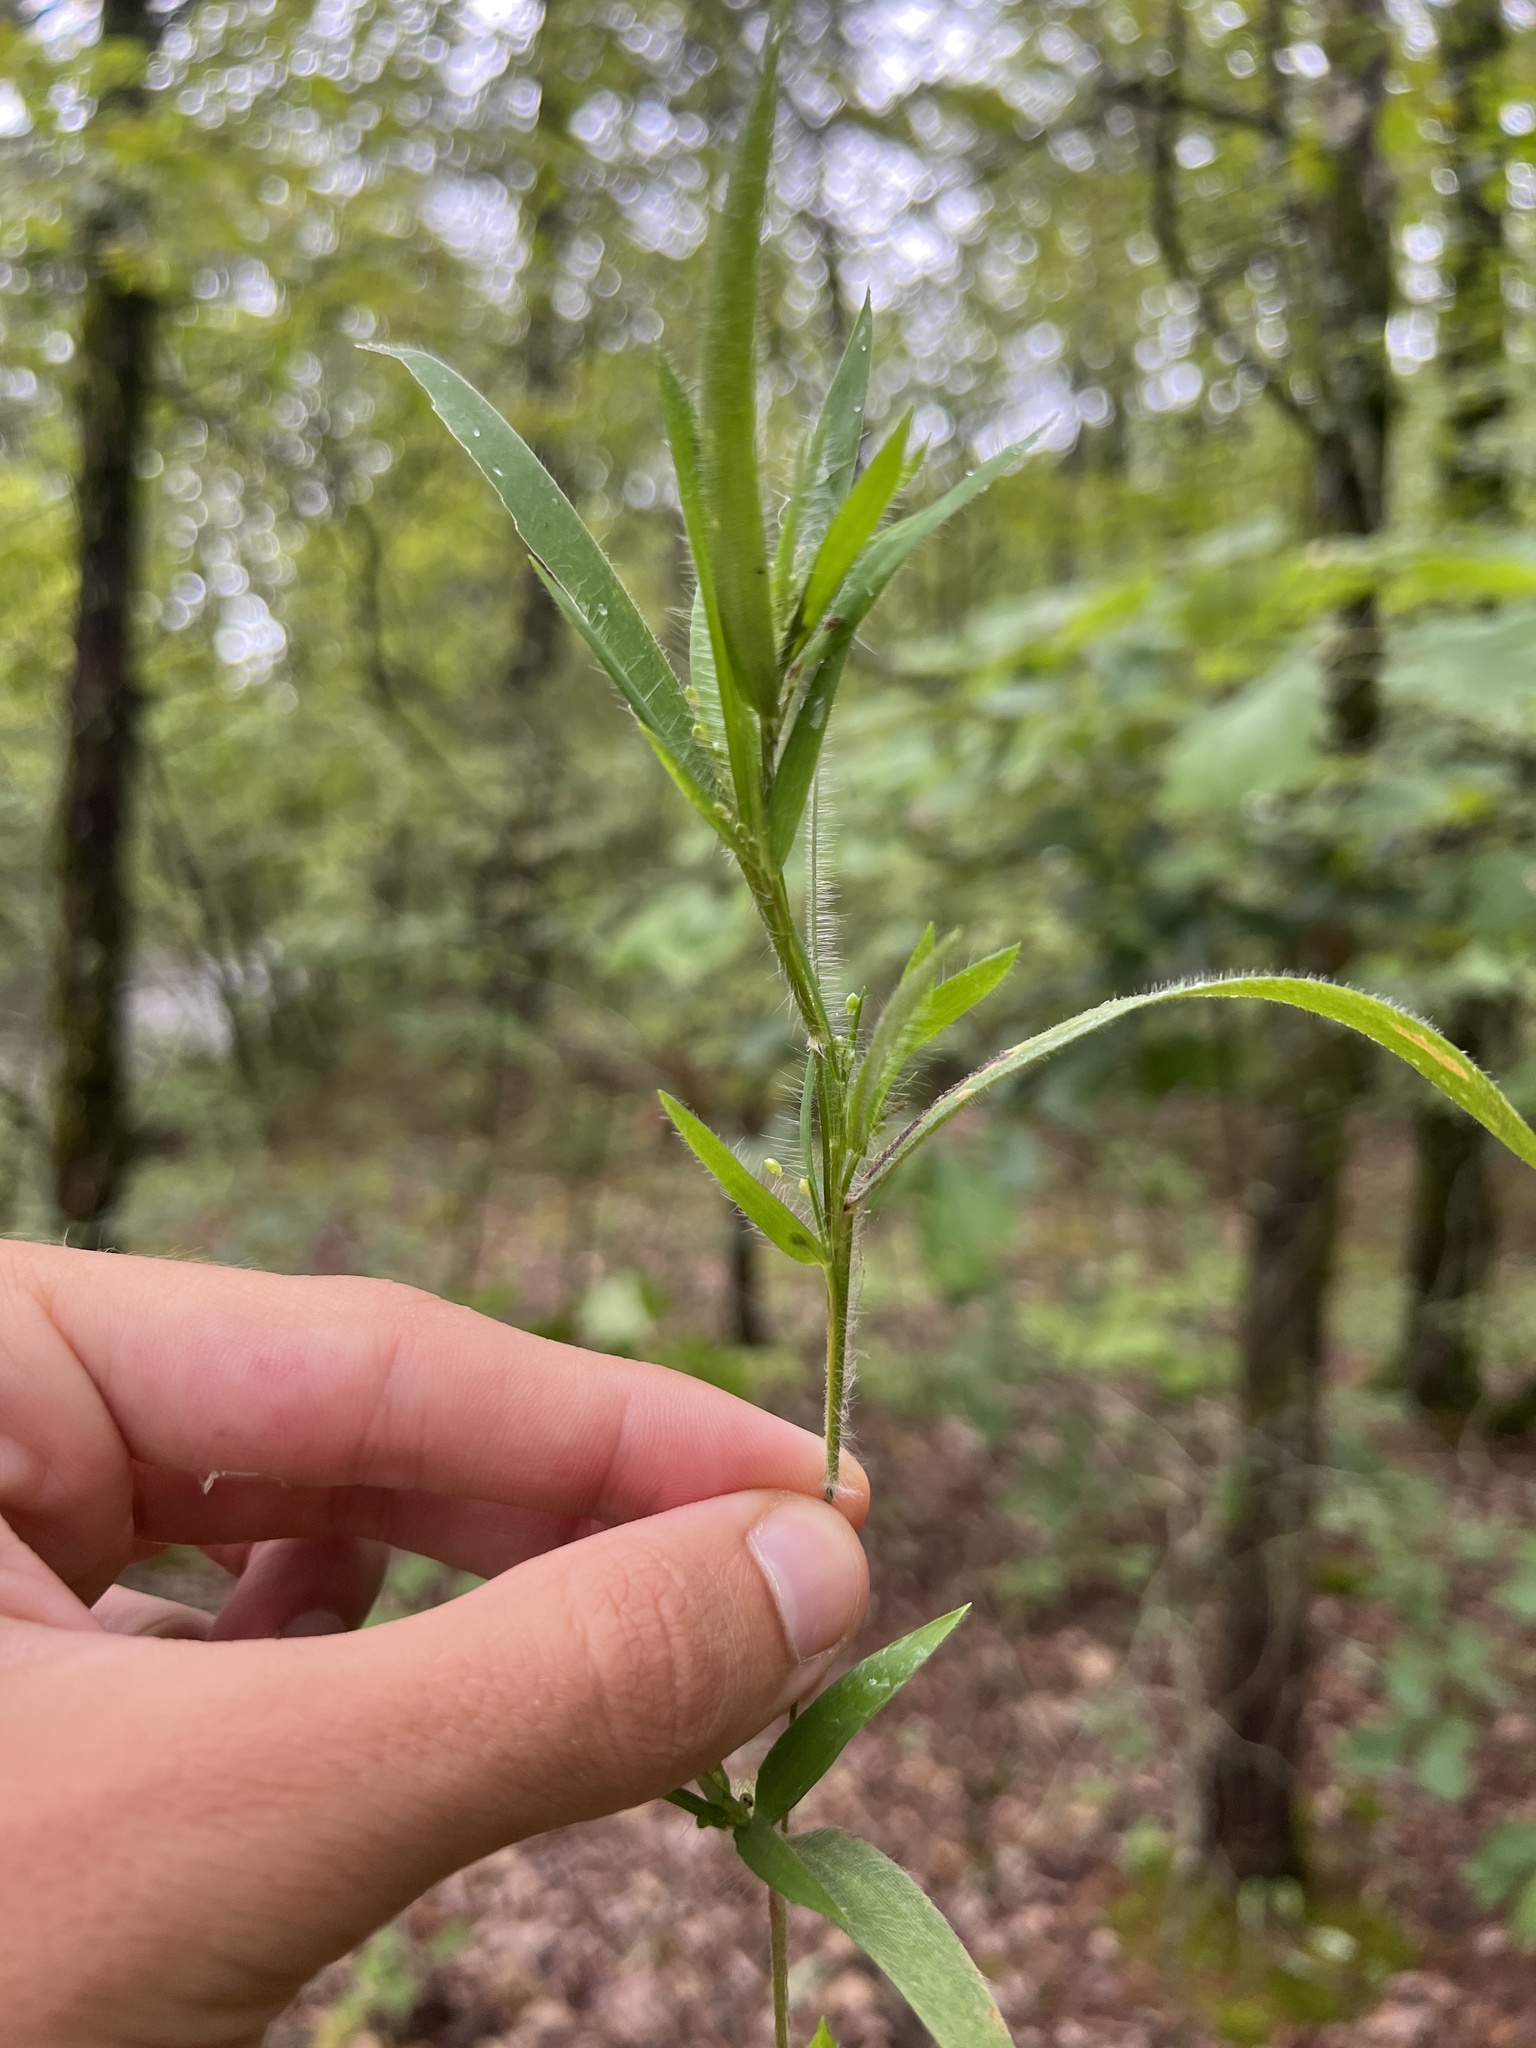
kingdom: Plantae
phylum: Tracheophyta
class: Liliopsida
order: Poales
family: Poaceae
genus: Dichanthelium
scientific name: Dichanthelium villosissimum
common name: White-haired panicgrass
